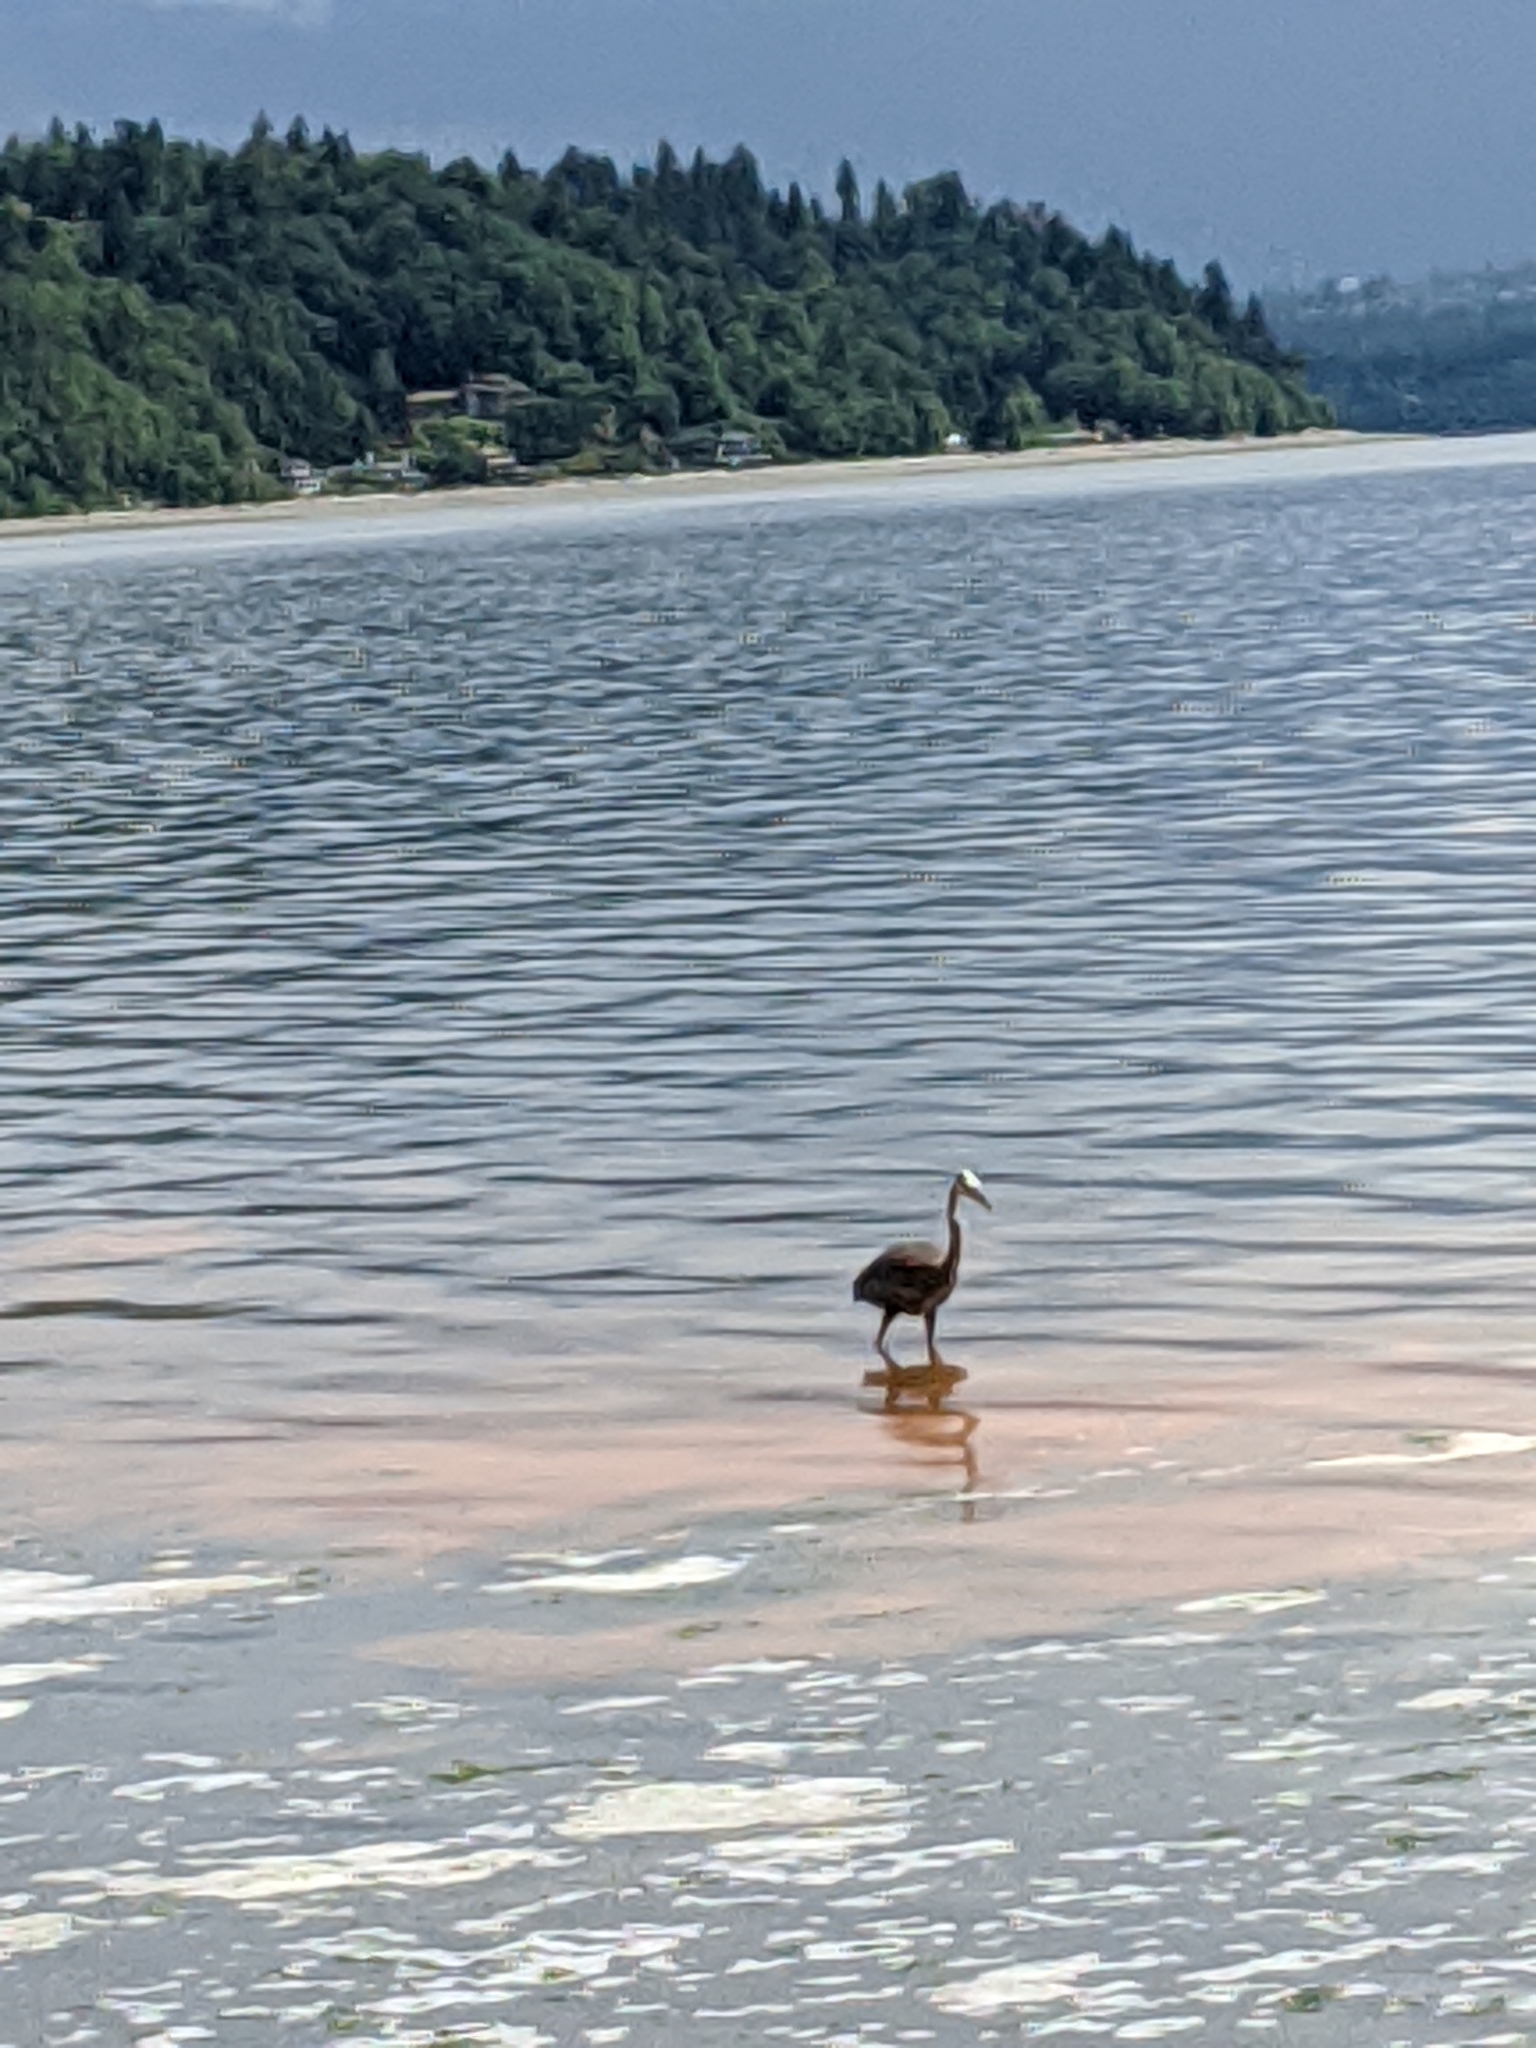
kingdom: Animalia
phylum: Chordata
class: Aves
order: Pelecaniformes
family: Ardeidae
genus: Ardea
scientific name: Ardea herodias
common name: Great blue heron
